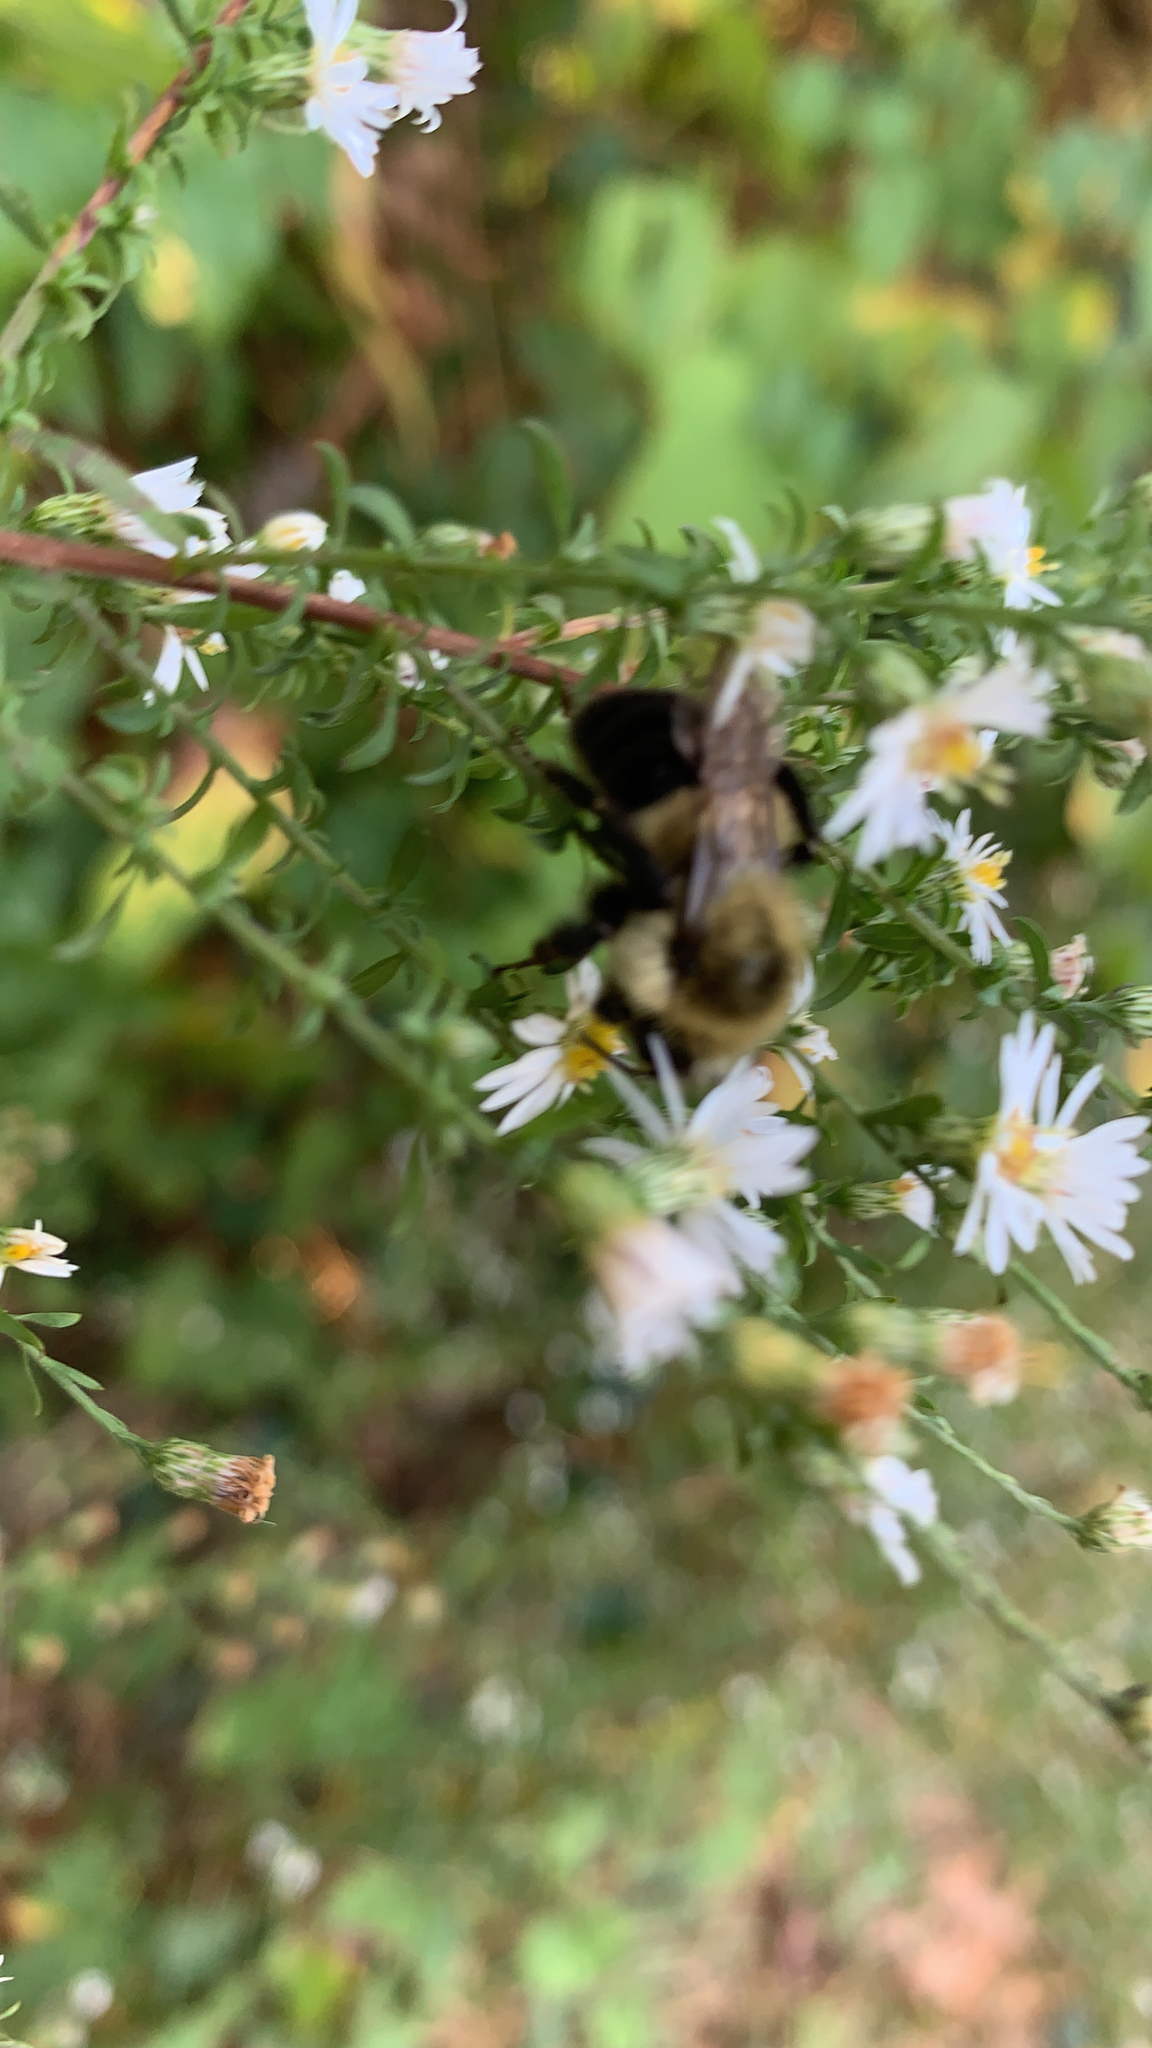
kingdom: Animalia
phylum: Arthropoda
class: Insecta
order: Hymenoptera
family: Apidae
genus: Bombus
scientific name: Bombus impatiens
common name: Common eastern bumble bee
